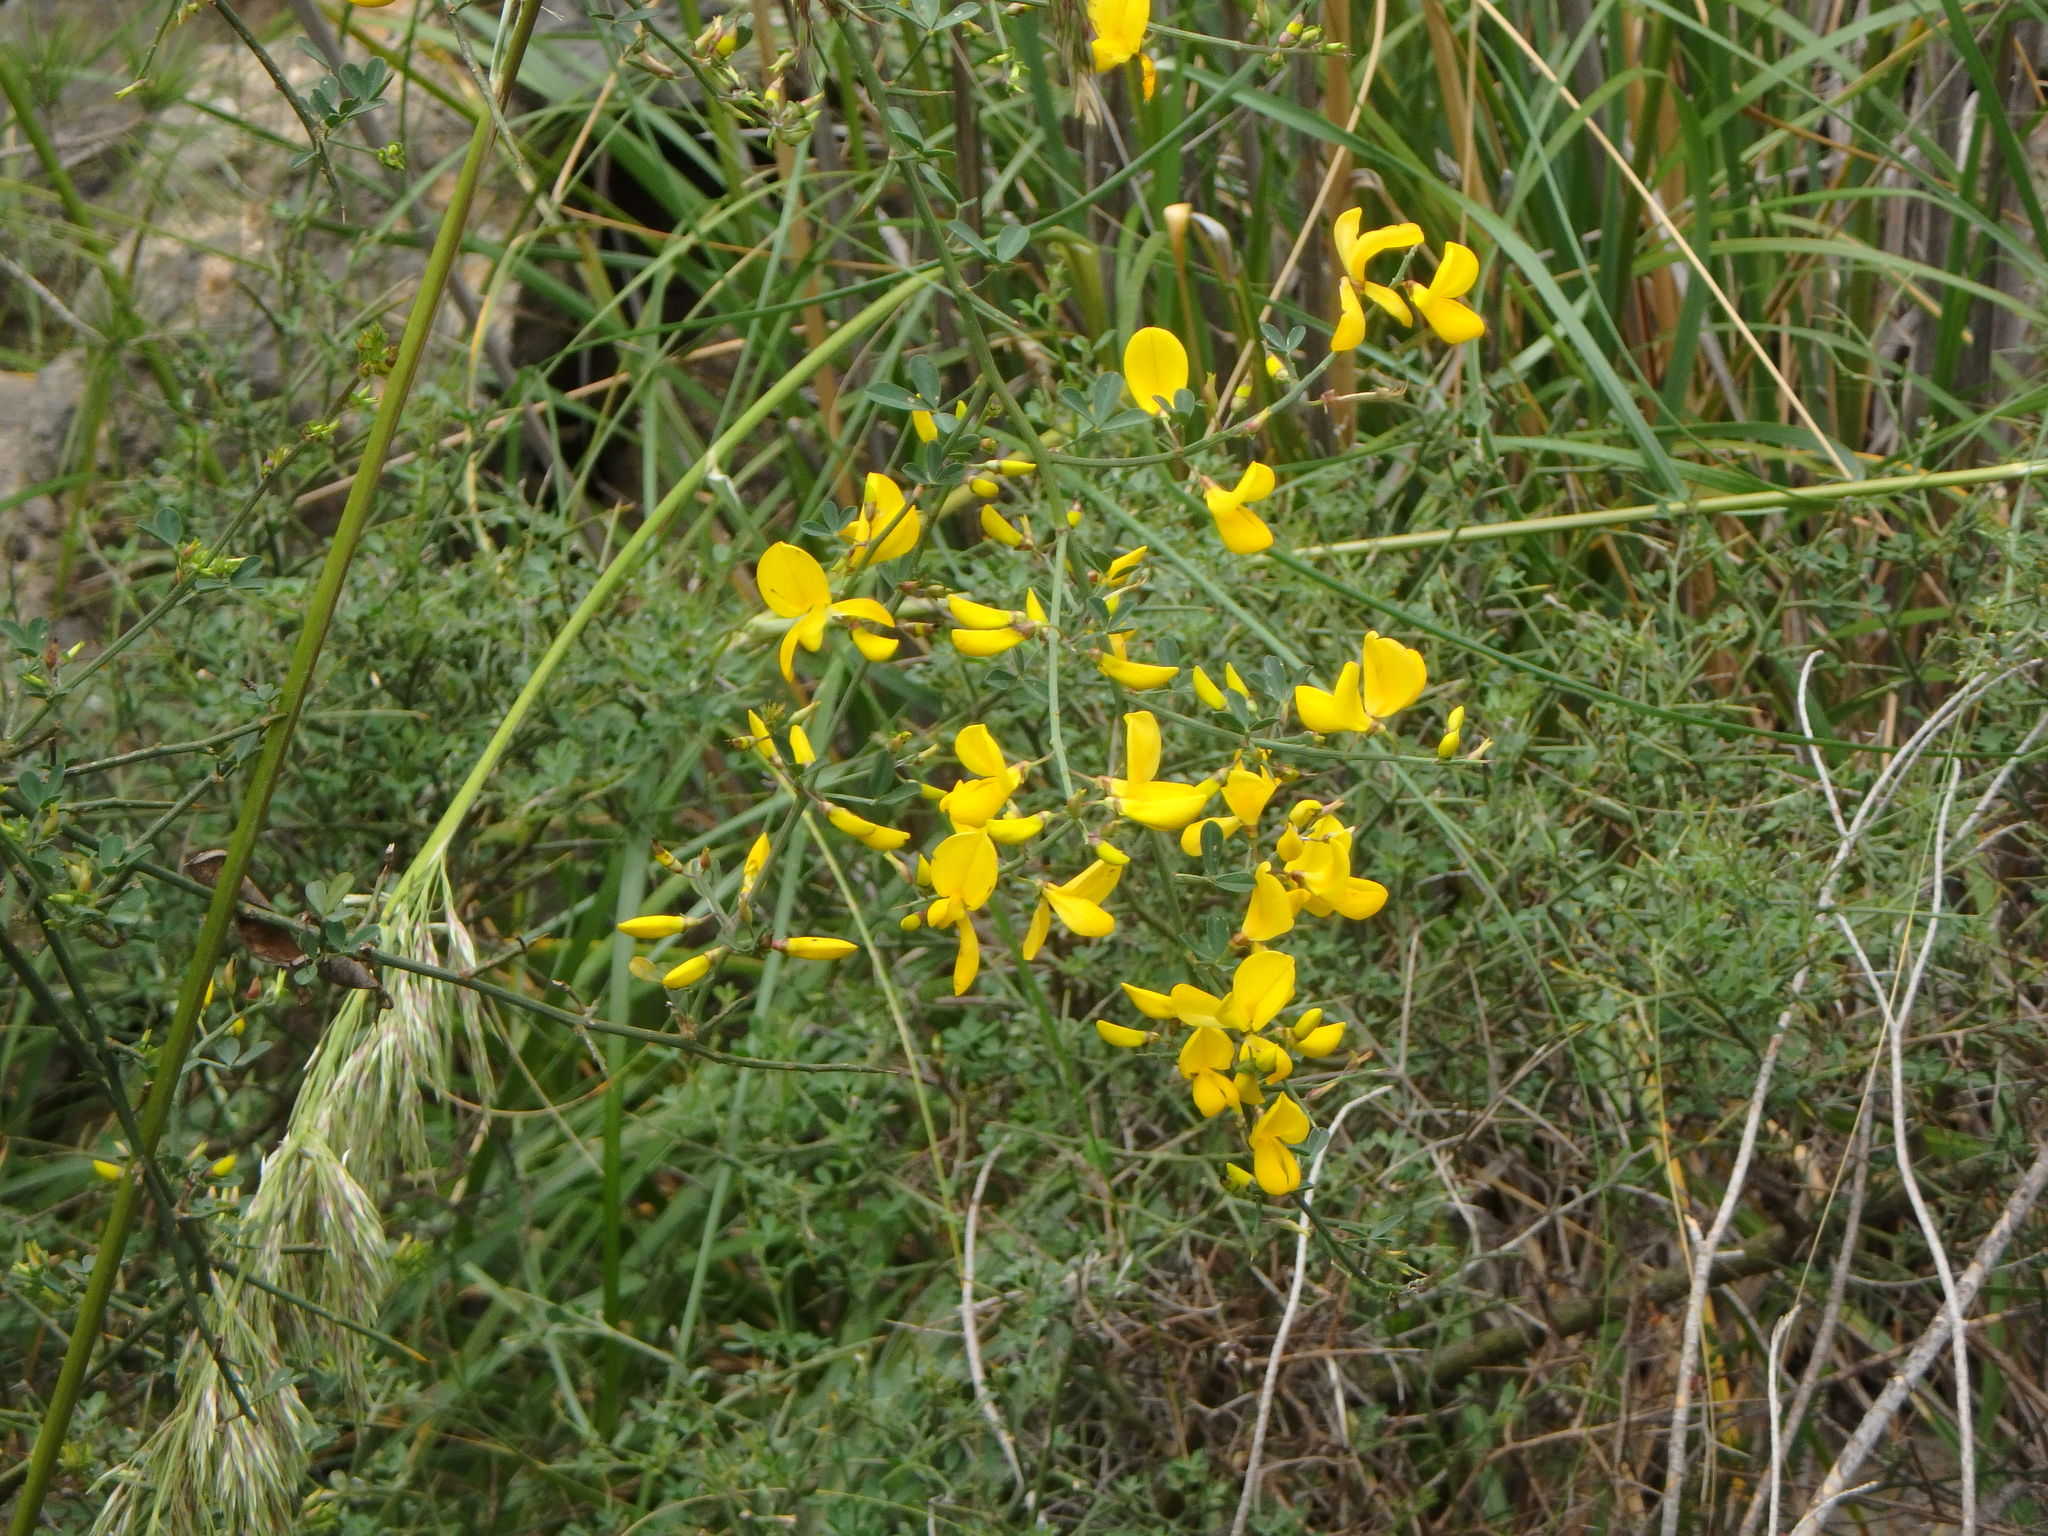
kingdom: Plantae
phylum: Tracheophyta
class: Magnoliopsida
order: Fabales
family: Fabaceae
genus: Calicotome
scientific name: Calicotome spinosa
